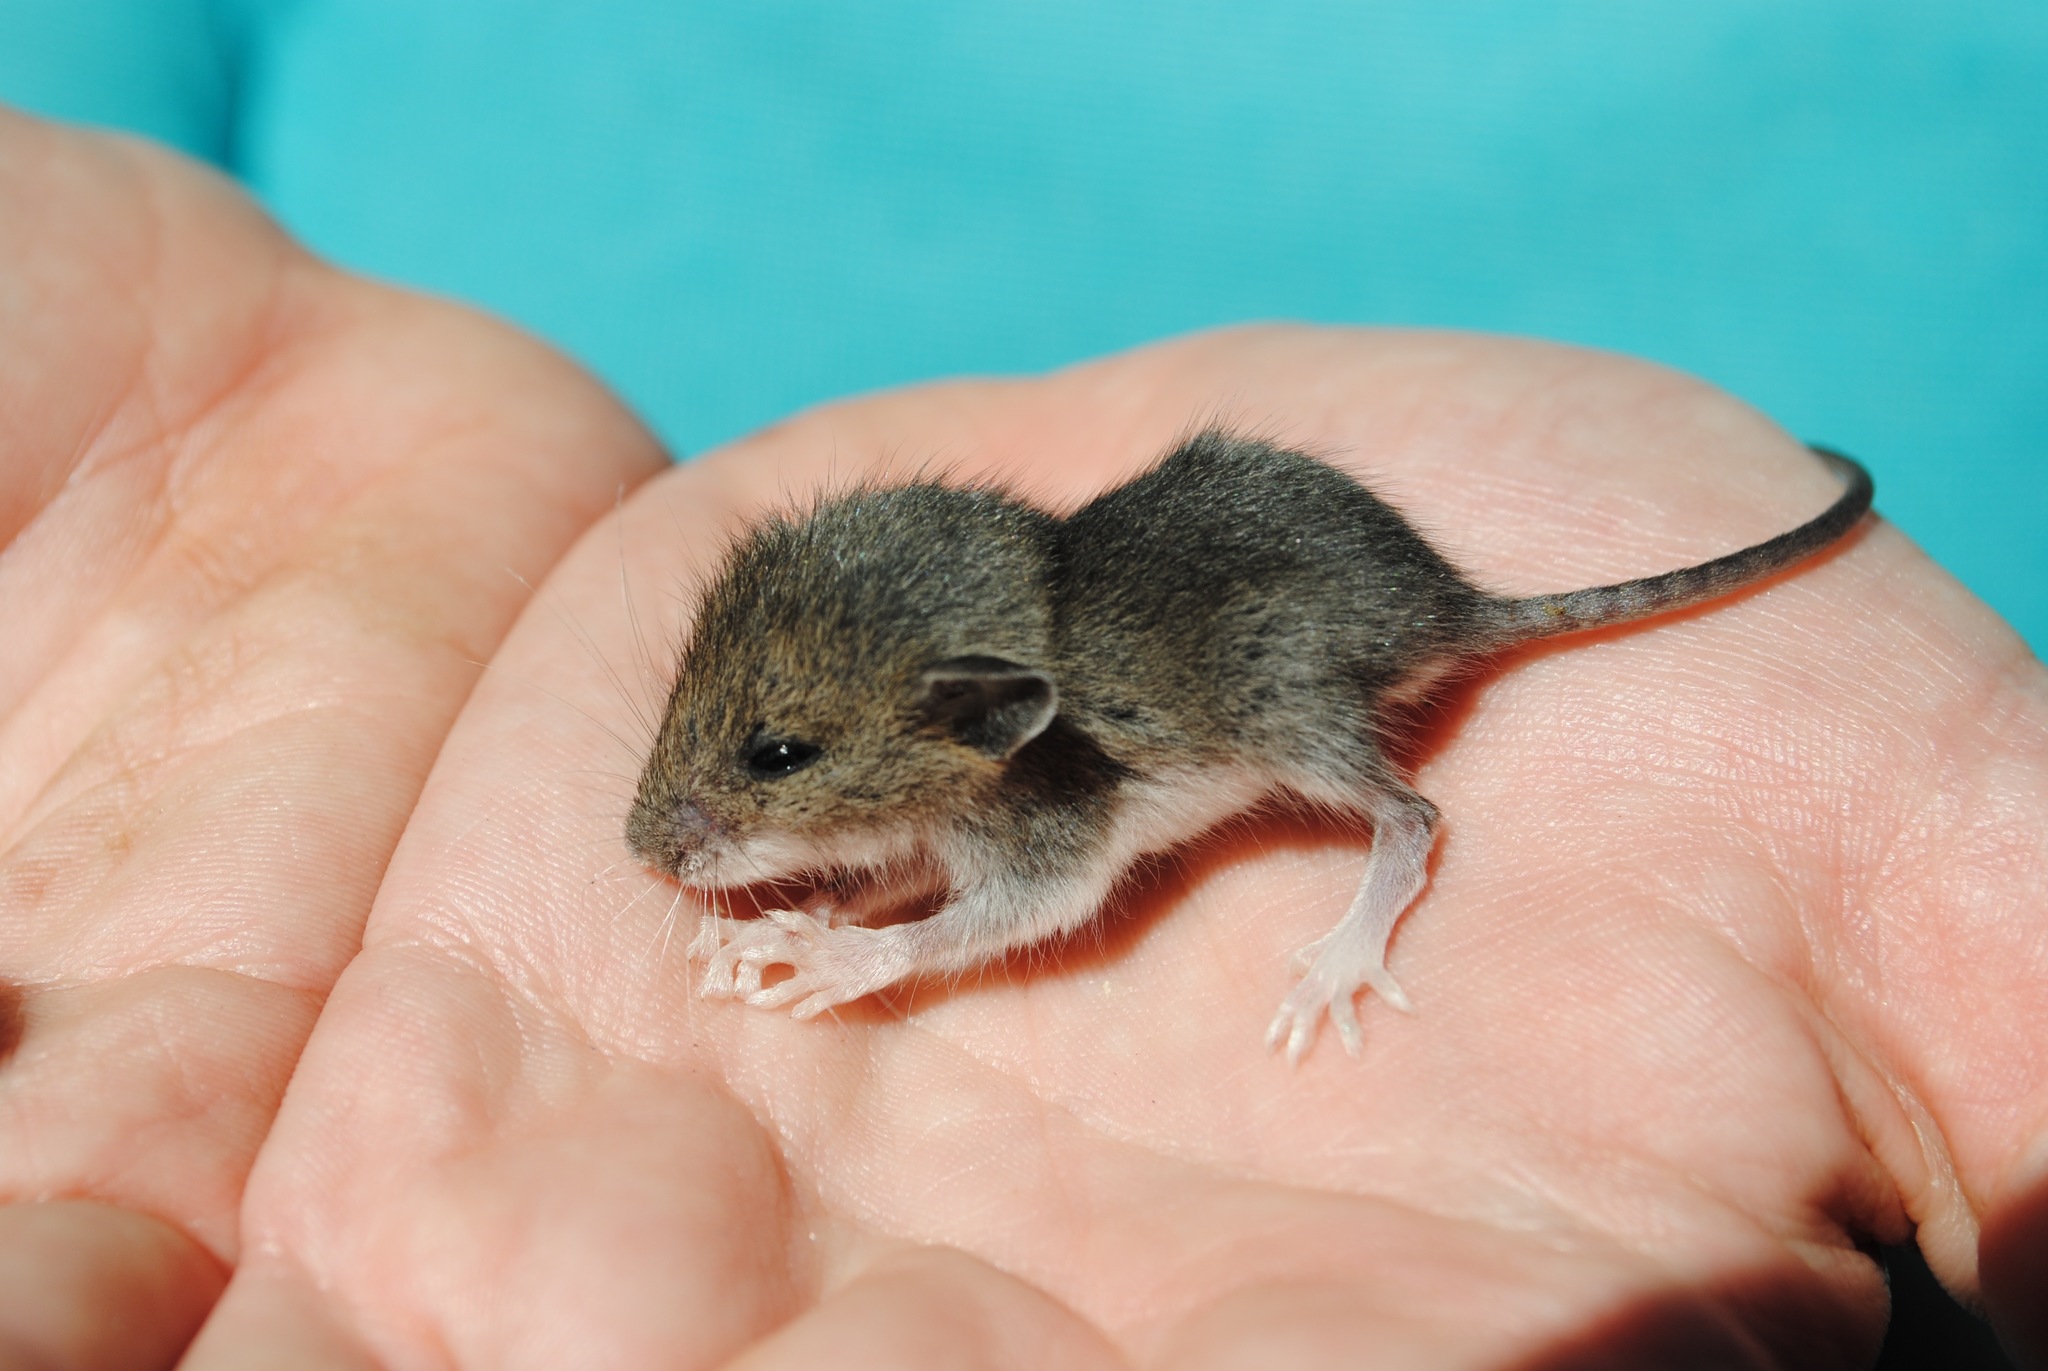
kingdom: Animalia
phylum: Chordata
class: Mammalia
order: Rodentia
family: Cricetidae
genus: Peromyscus
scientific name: Peromyscus leucopus
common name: White-footed deermouse
